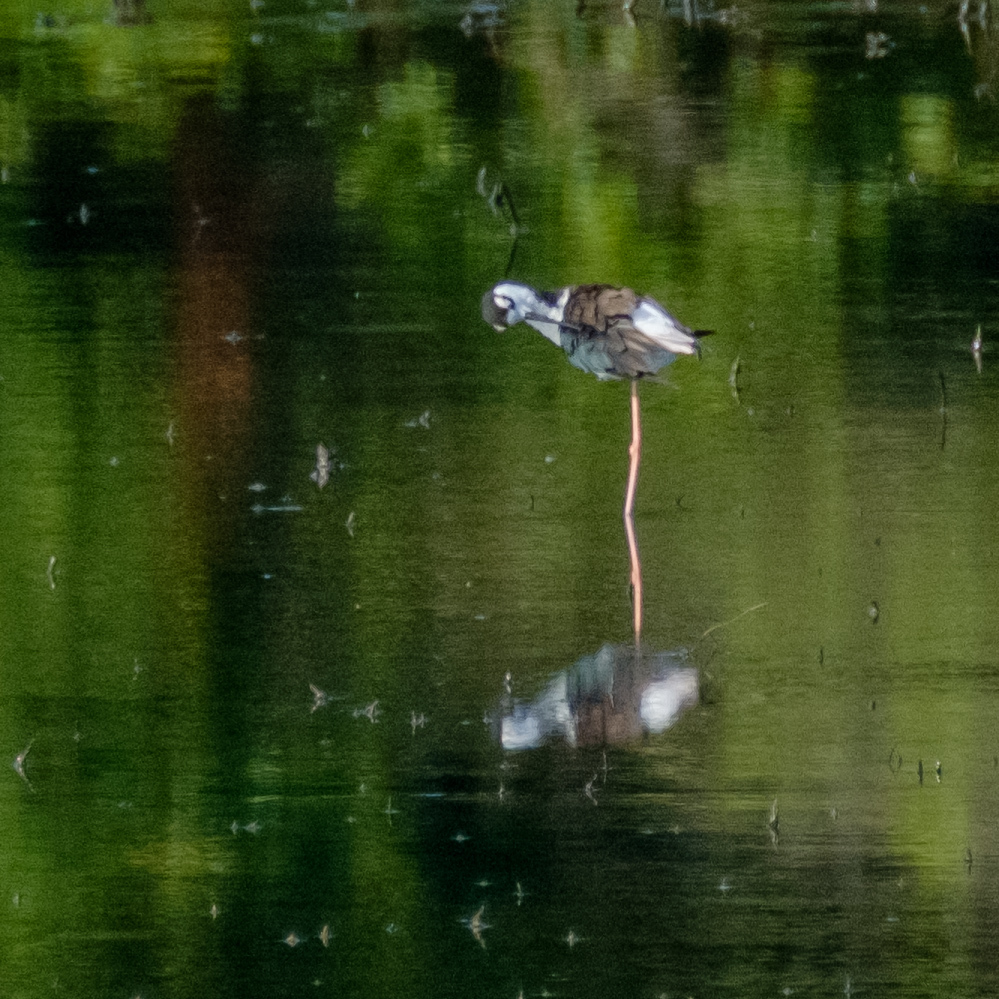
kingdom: Animalia
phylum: Chordata
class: Aves
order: Charadriiformes
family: Recurvirostridae
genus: Himantopus
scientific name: Himantopus mexicanus
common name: Black-necked stilt
